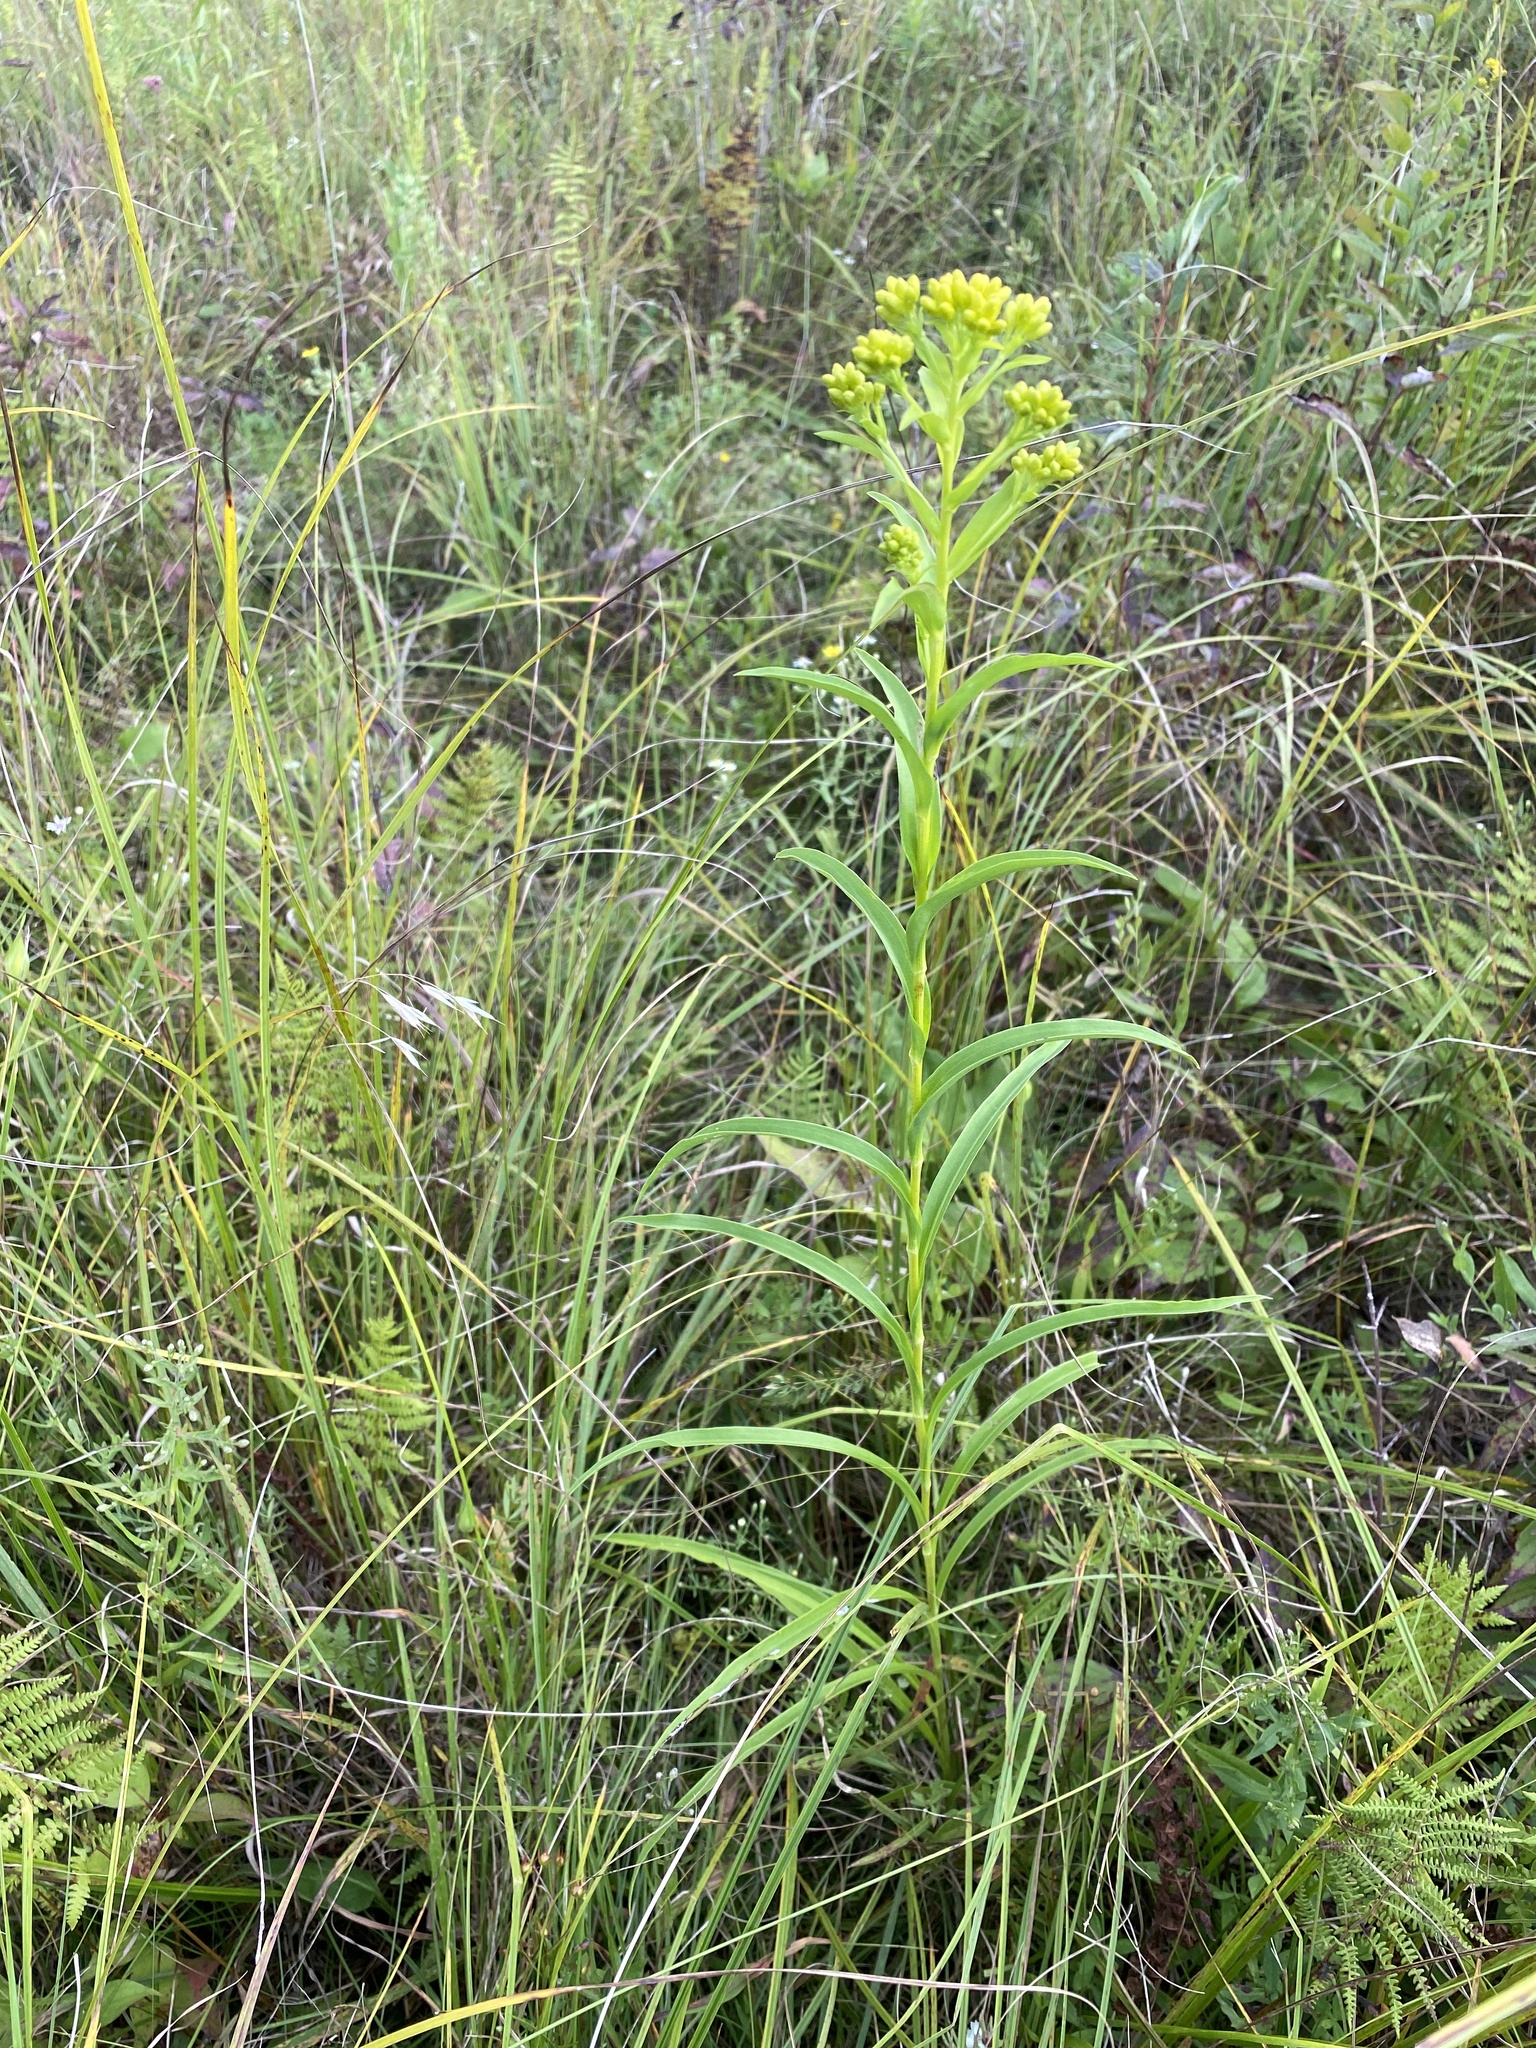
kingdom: Plantae
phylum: Tracheophyta
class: Magnoliopsida
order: Asterales
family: Asteraceae
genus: Solidago
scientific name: Solidago riddellii
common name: Riddell's goldenrod
